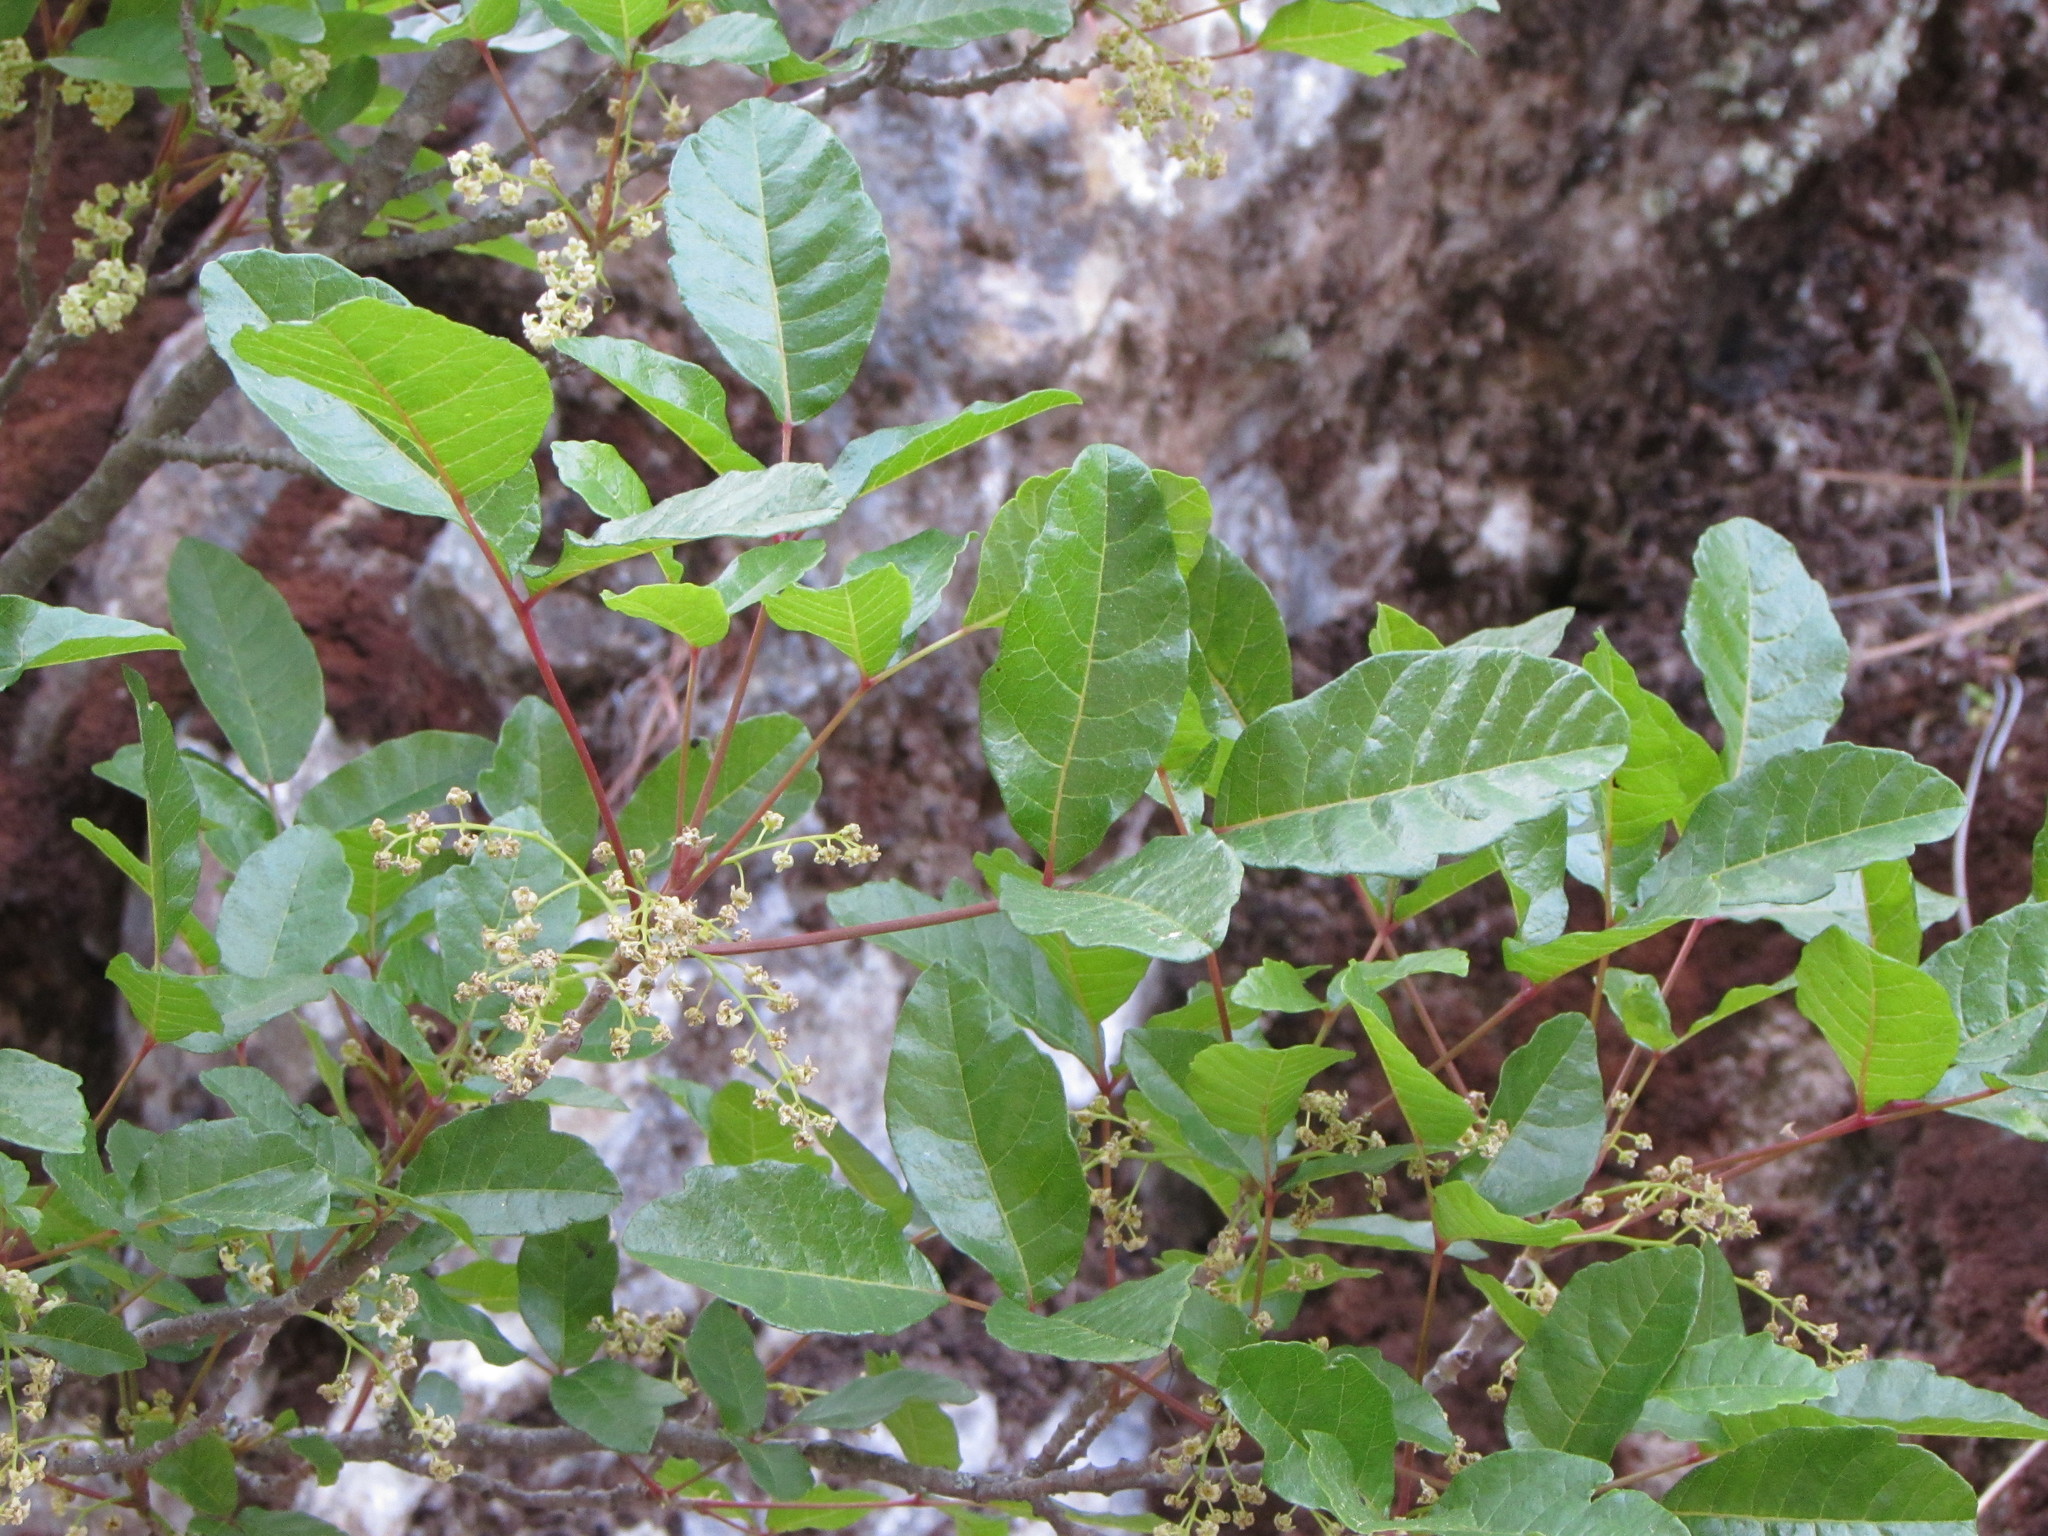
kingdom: Plantae
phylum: Tracheophyta
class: Magnoliopsida
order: Sapindales
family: Anacardiaceae
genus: Toxicodendron
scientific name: Toxicodendron diversilobum
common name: Pacific poison-oak
